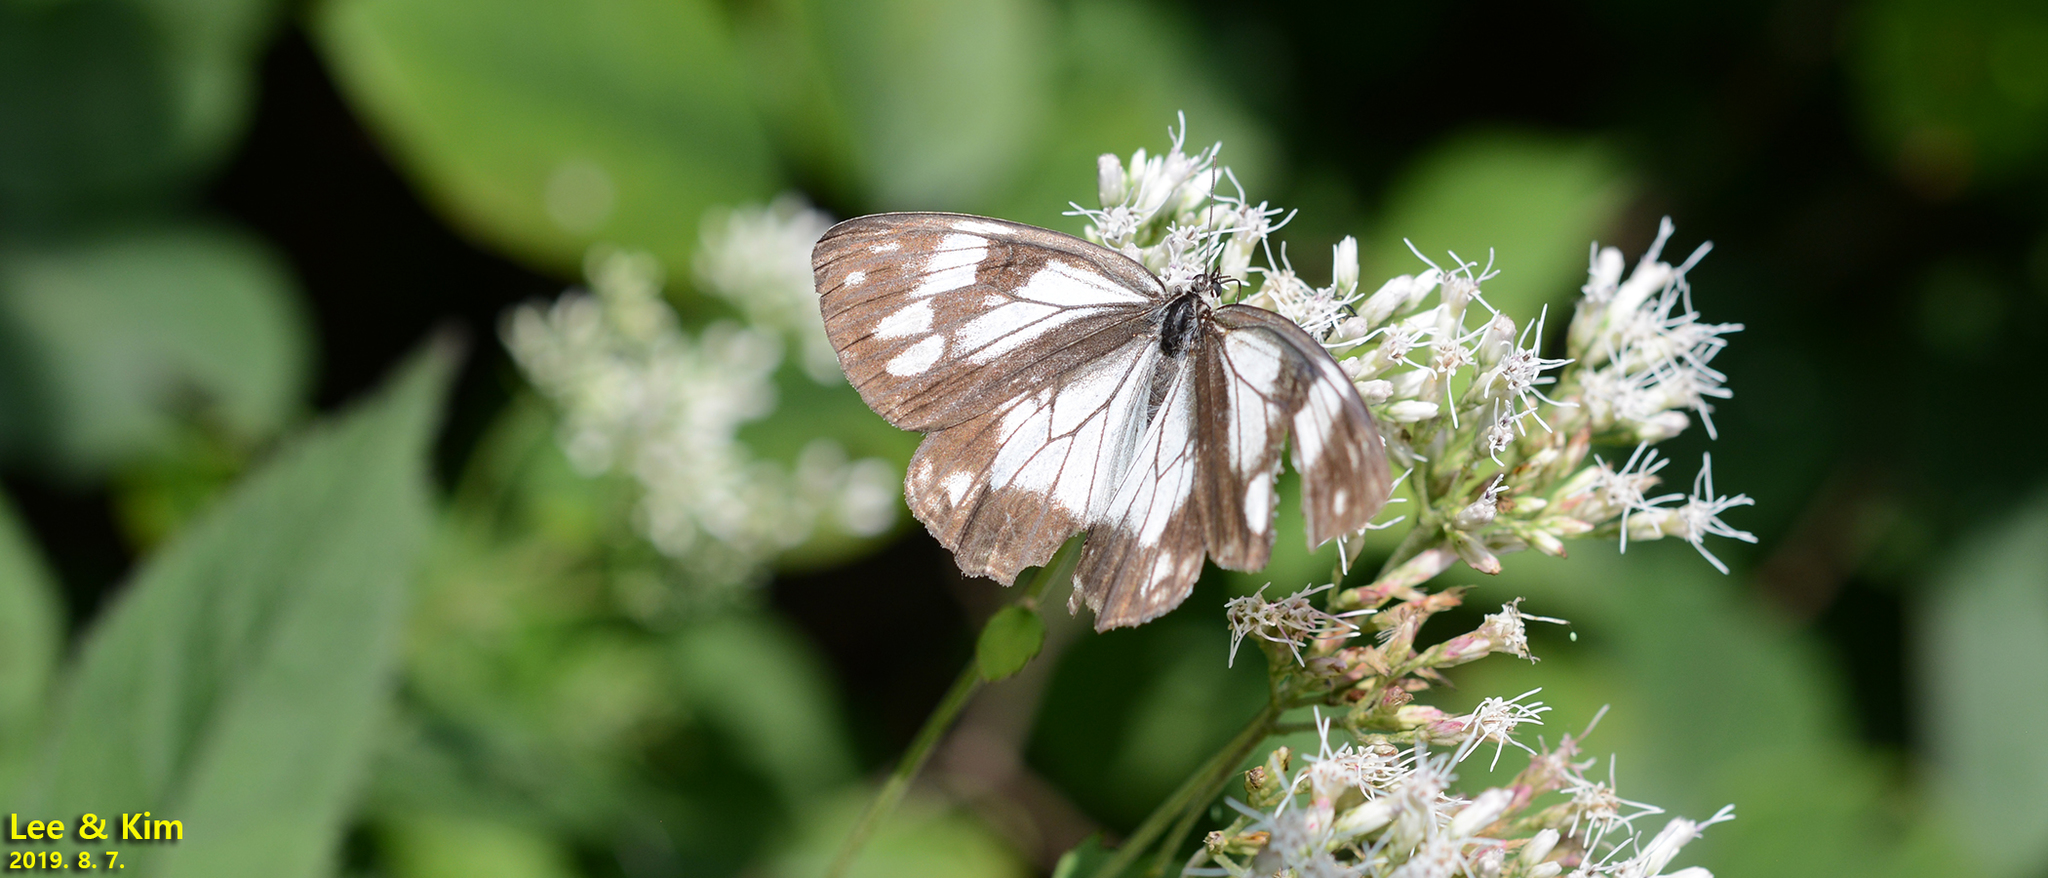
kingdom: Animalia
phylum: Arthropoda
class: Insecta
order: Lepidoptera
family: Nymphalidae
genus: Melanargia
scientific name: Melanargia halimede
